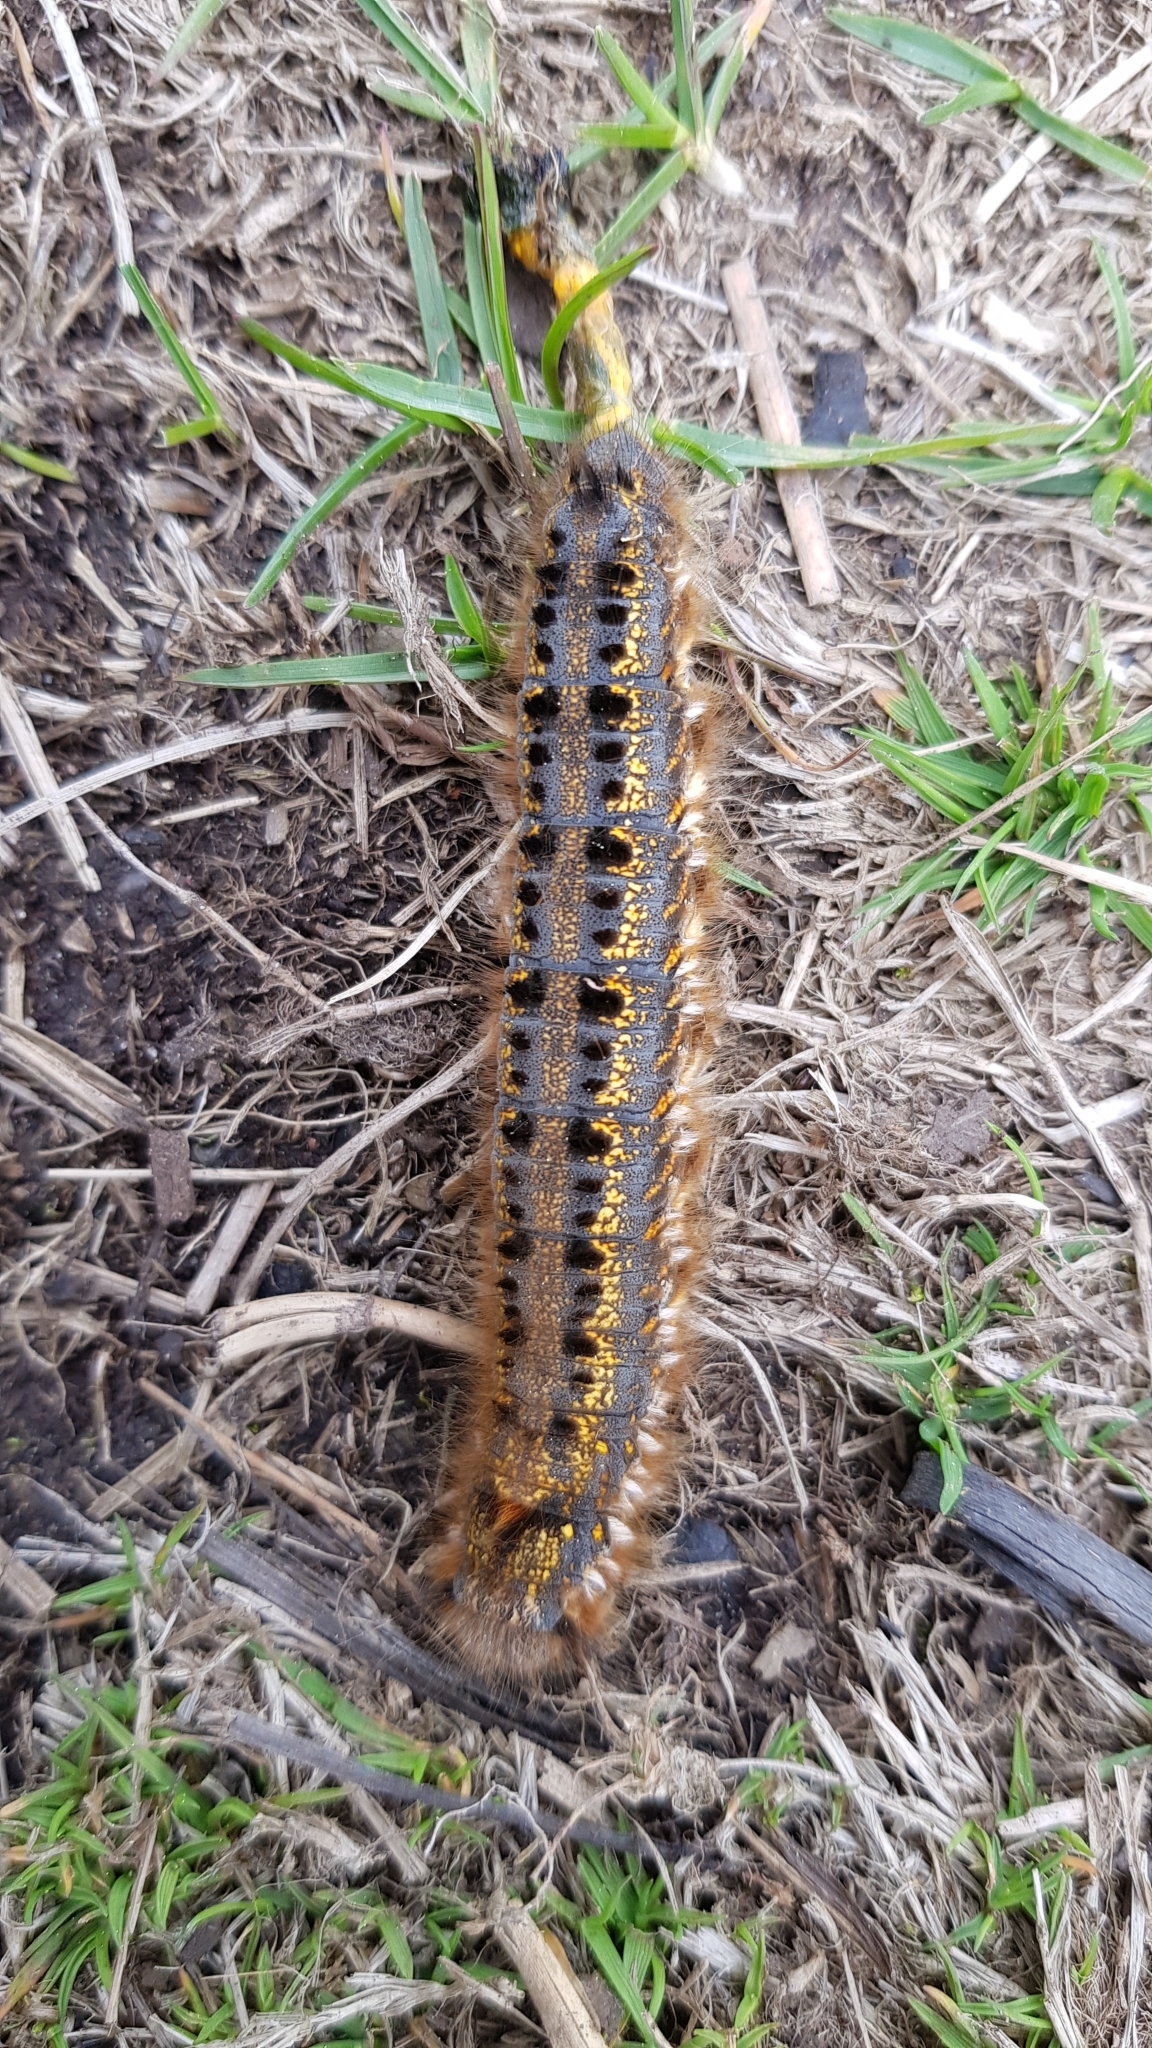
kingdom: Animalia
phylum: Arthropoda
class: Insecta
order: Lepidoptera
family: Lasiocampidae
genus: Euthrix
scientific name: Euthrix potatoria
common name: Drinker
